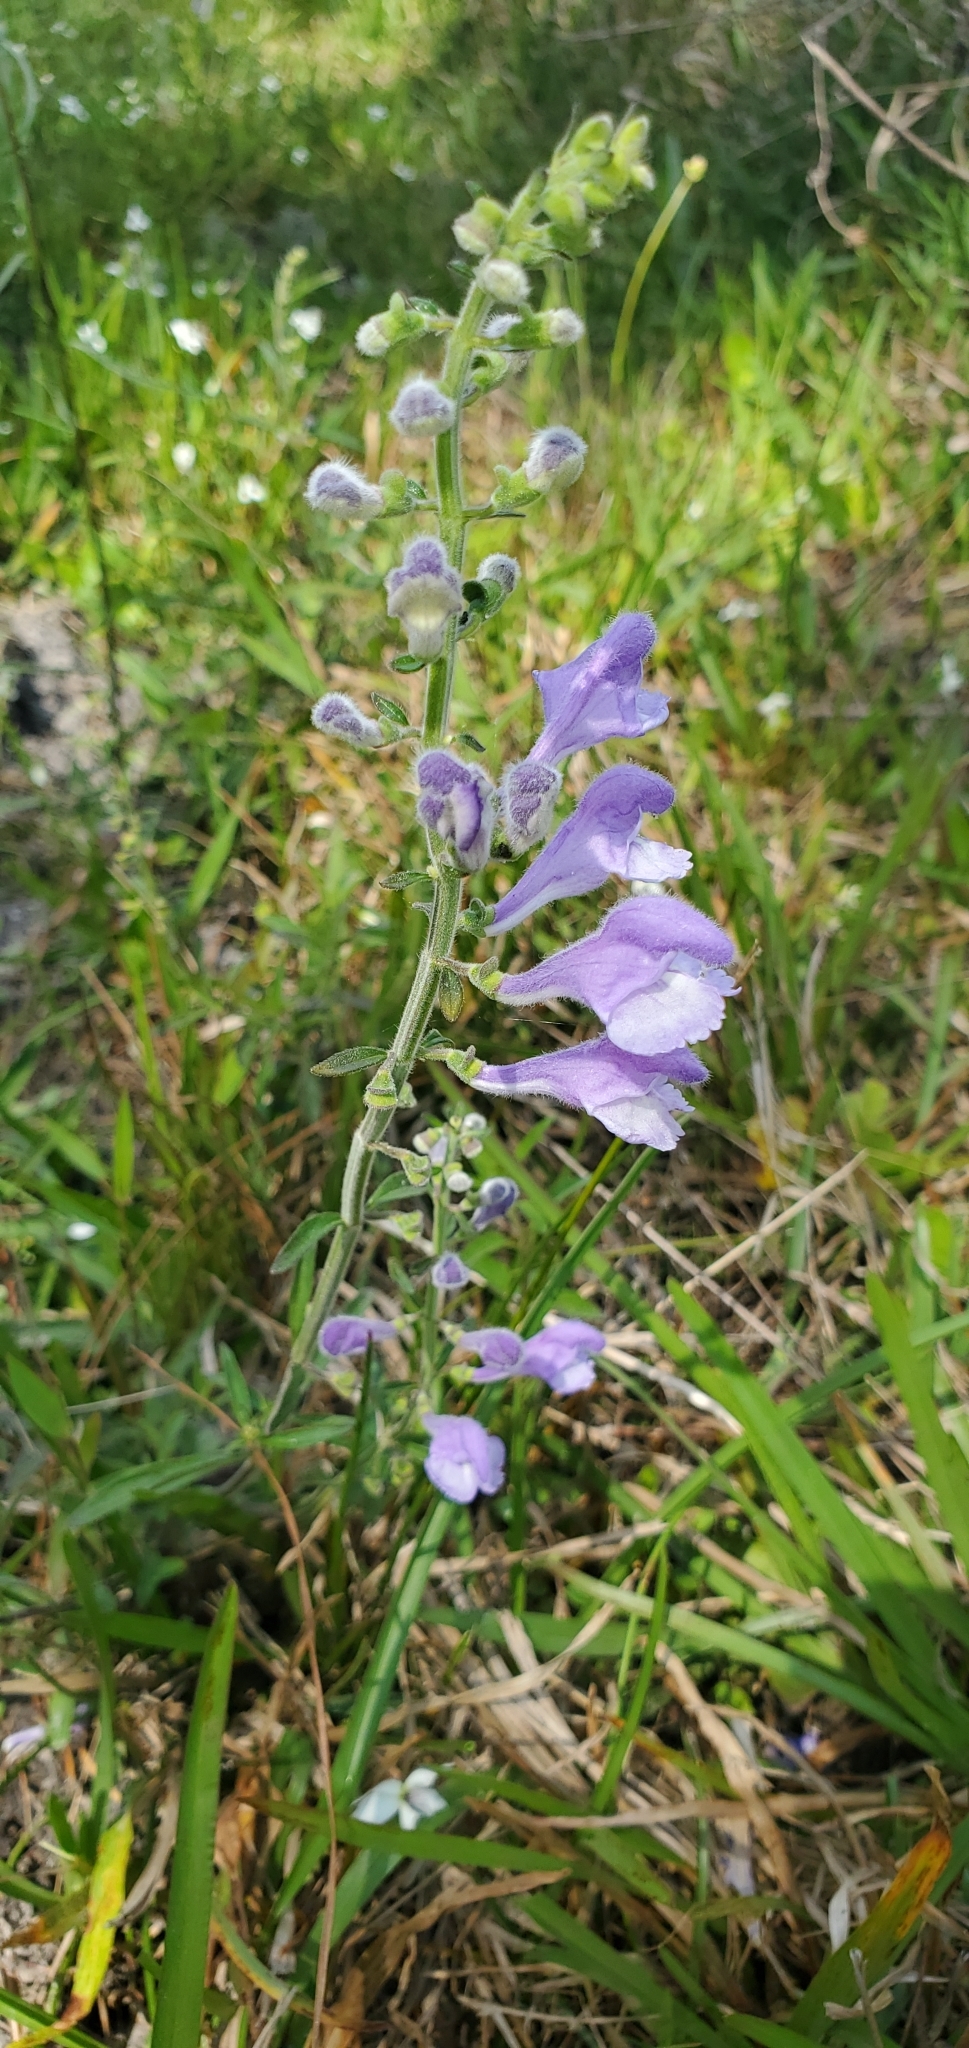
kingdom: Plantae
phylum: Tracheophyta
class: Magnoliopsida
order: Lamiales
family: Lamiaceae
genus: Scutellaria
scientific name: Scutellaria integrifolia
